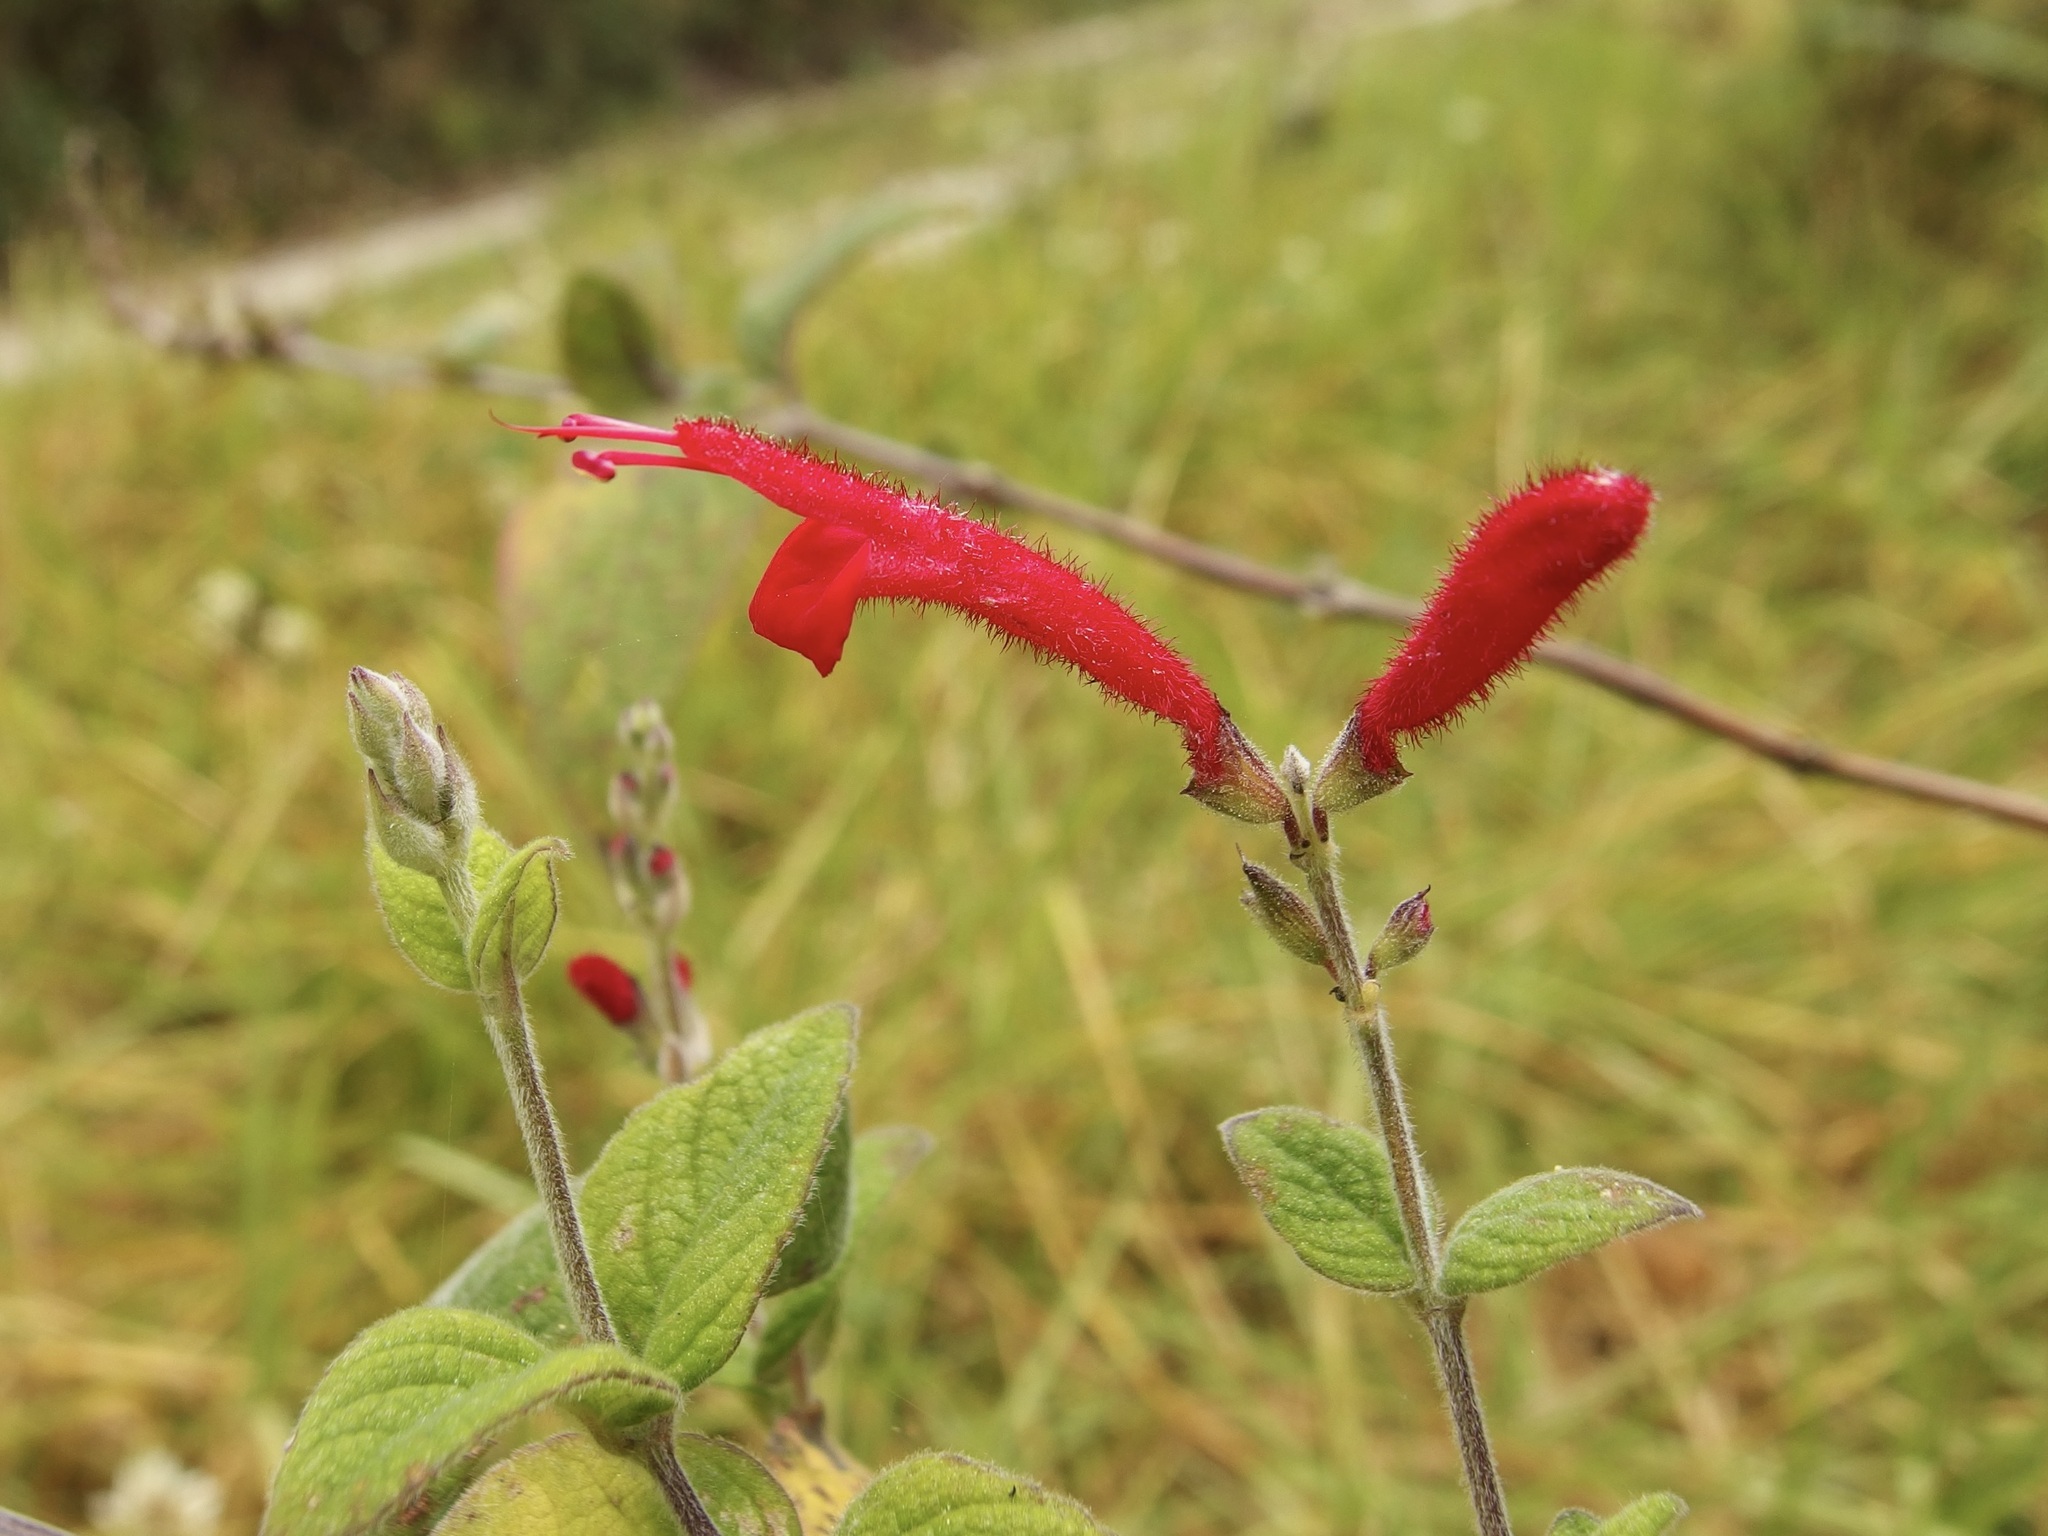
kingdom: Plantae
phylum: Tracheophyta
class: Magnoliopsida
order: Lamiales
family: Lamiaceae
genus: Salvia
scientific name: Salvia cinnabarina
